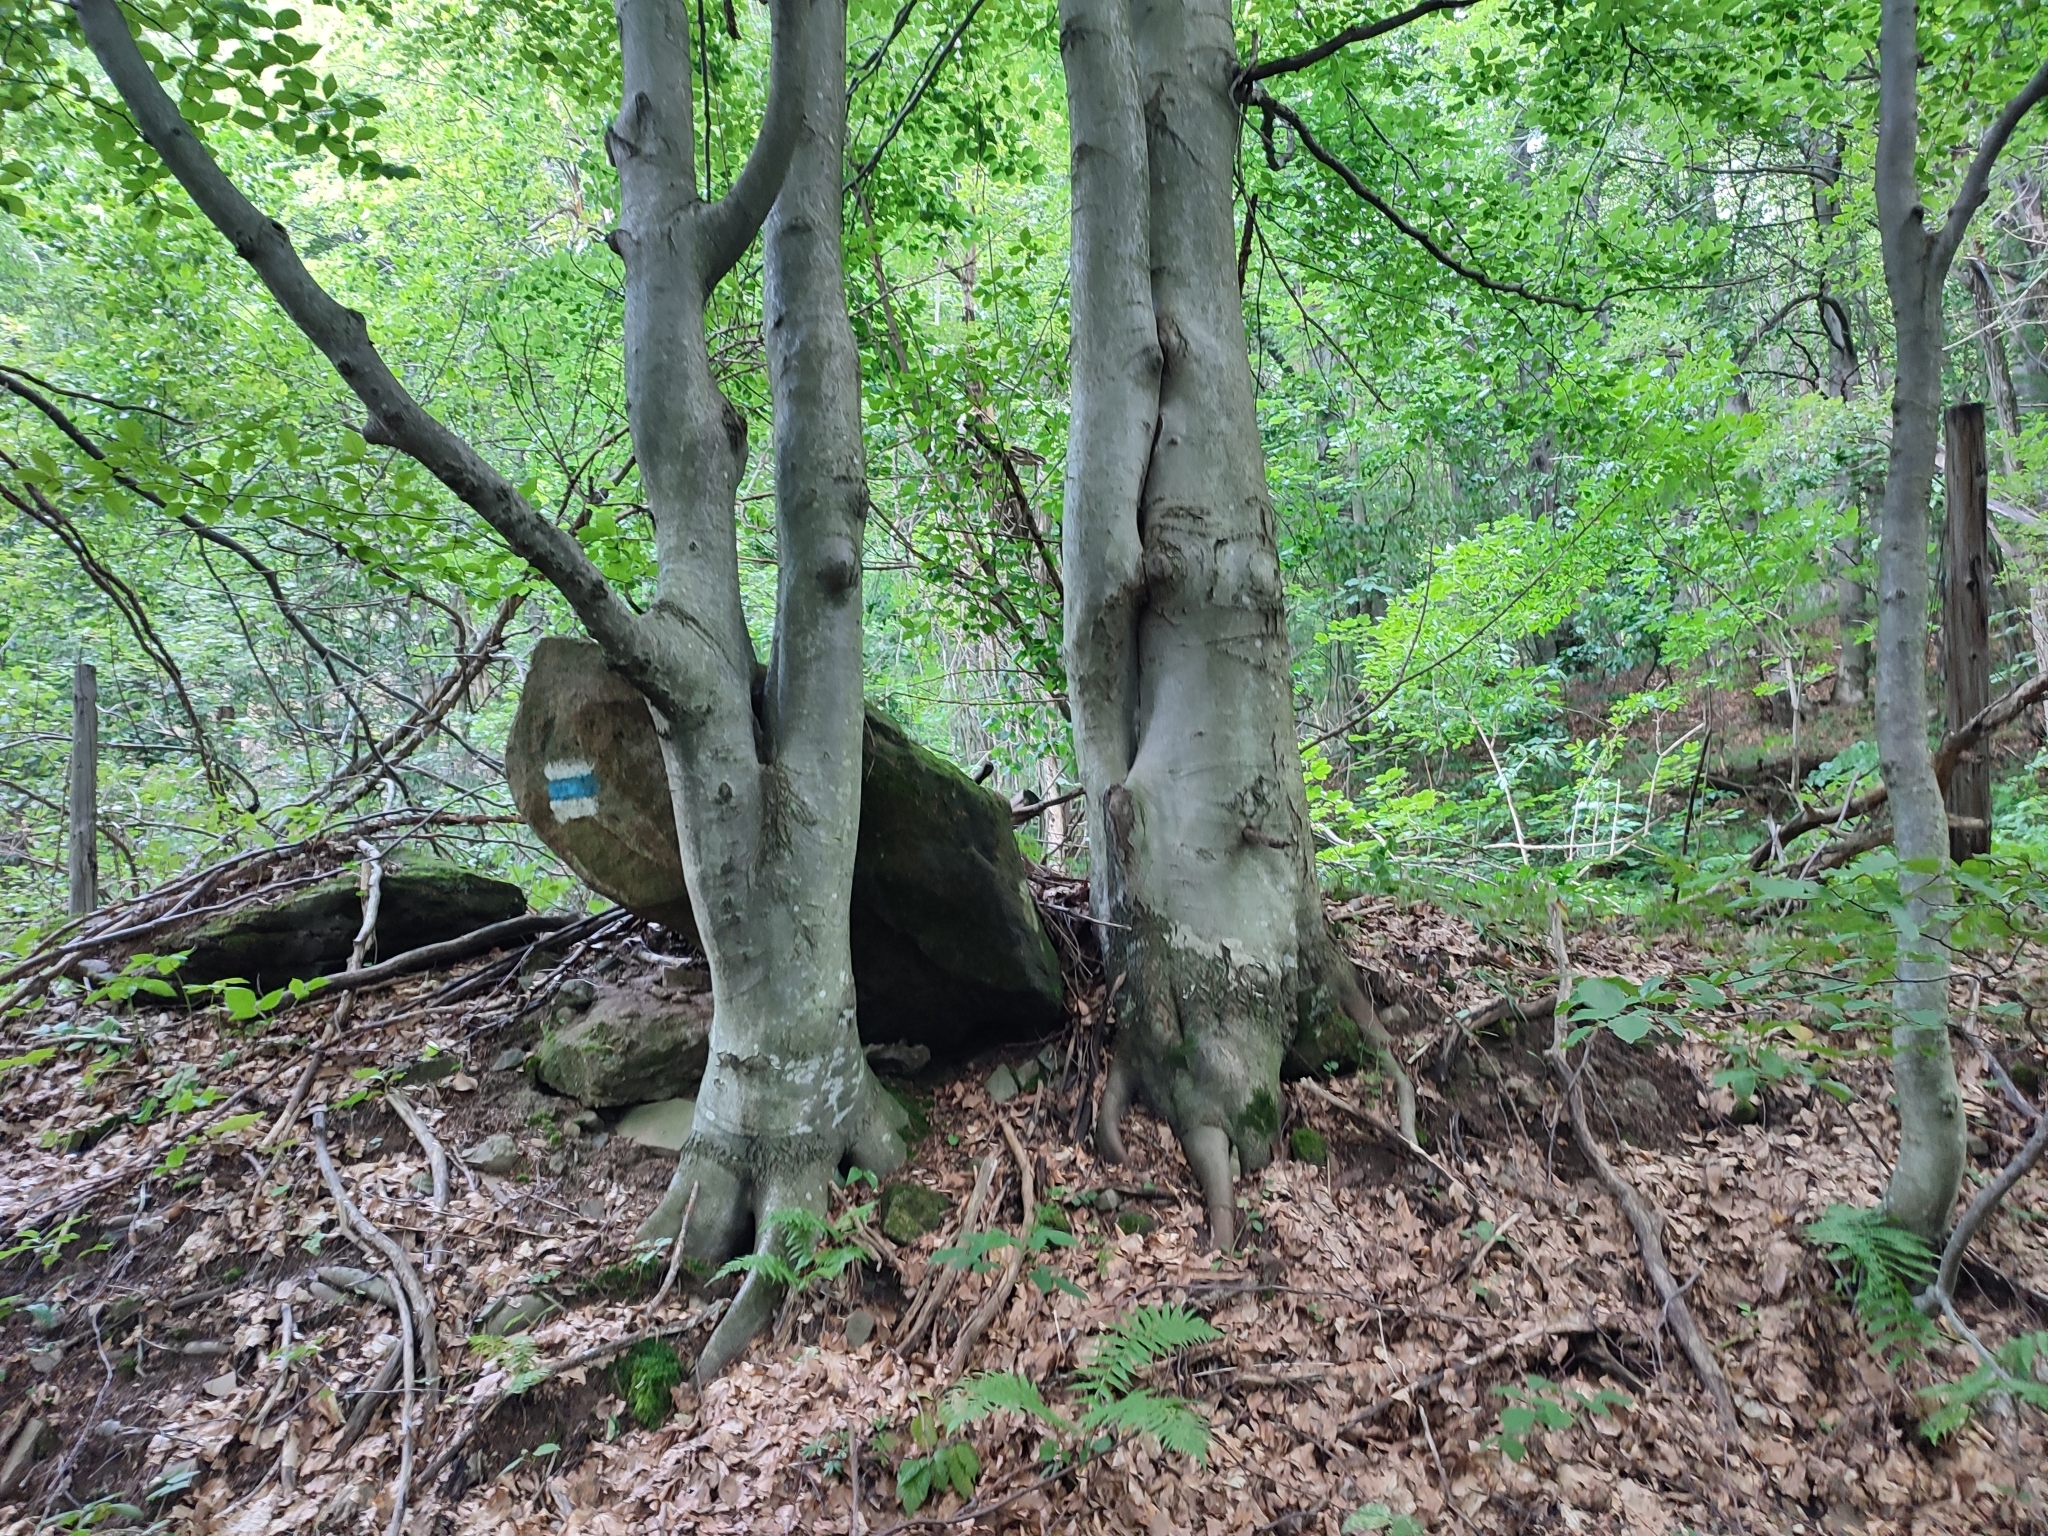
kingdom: Plantae
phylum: Tracheophyta
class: Magnoliopsida
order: Fagales
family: Fagaceae
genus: Fagus
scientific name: Fagus sylvatica
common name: Beech
